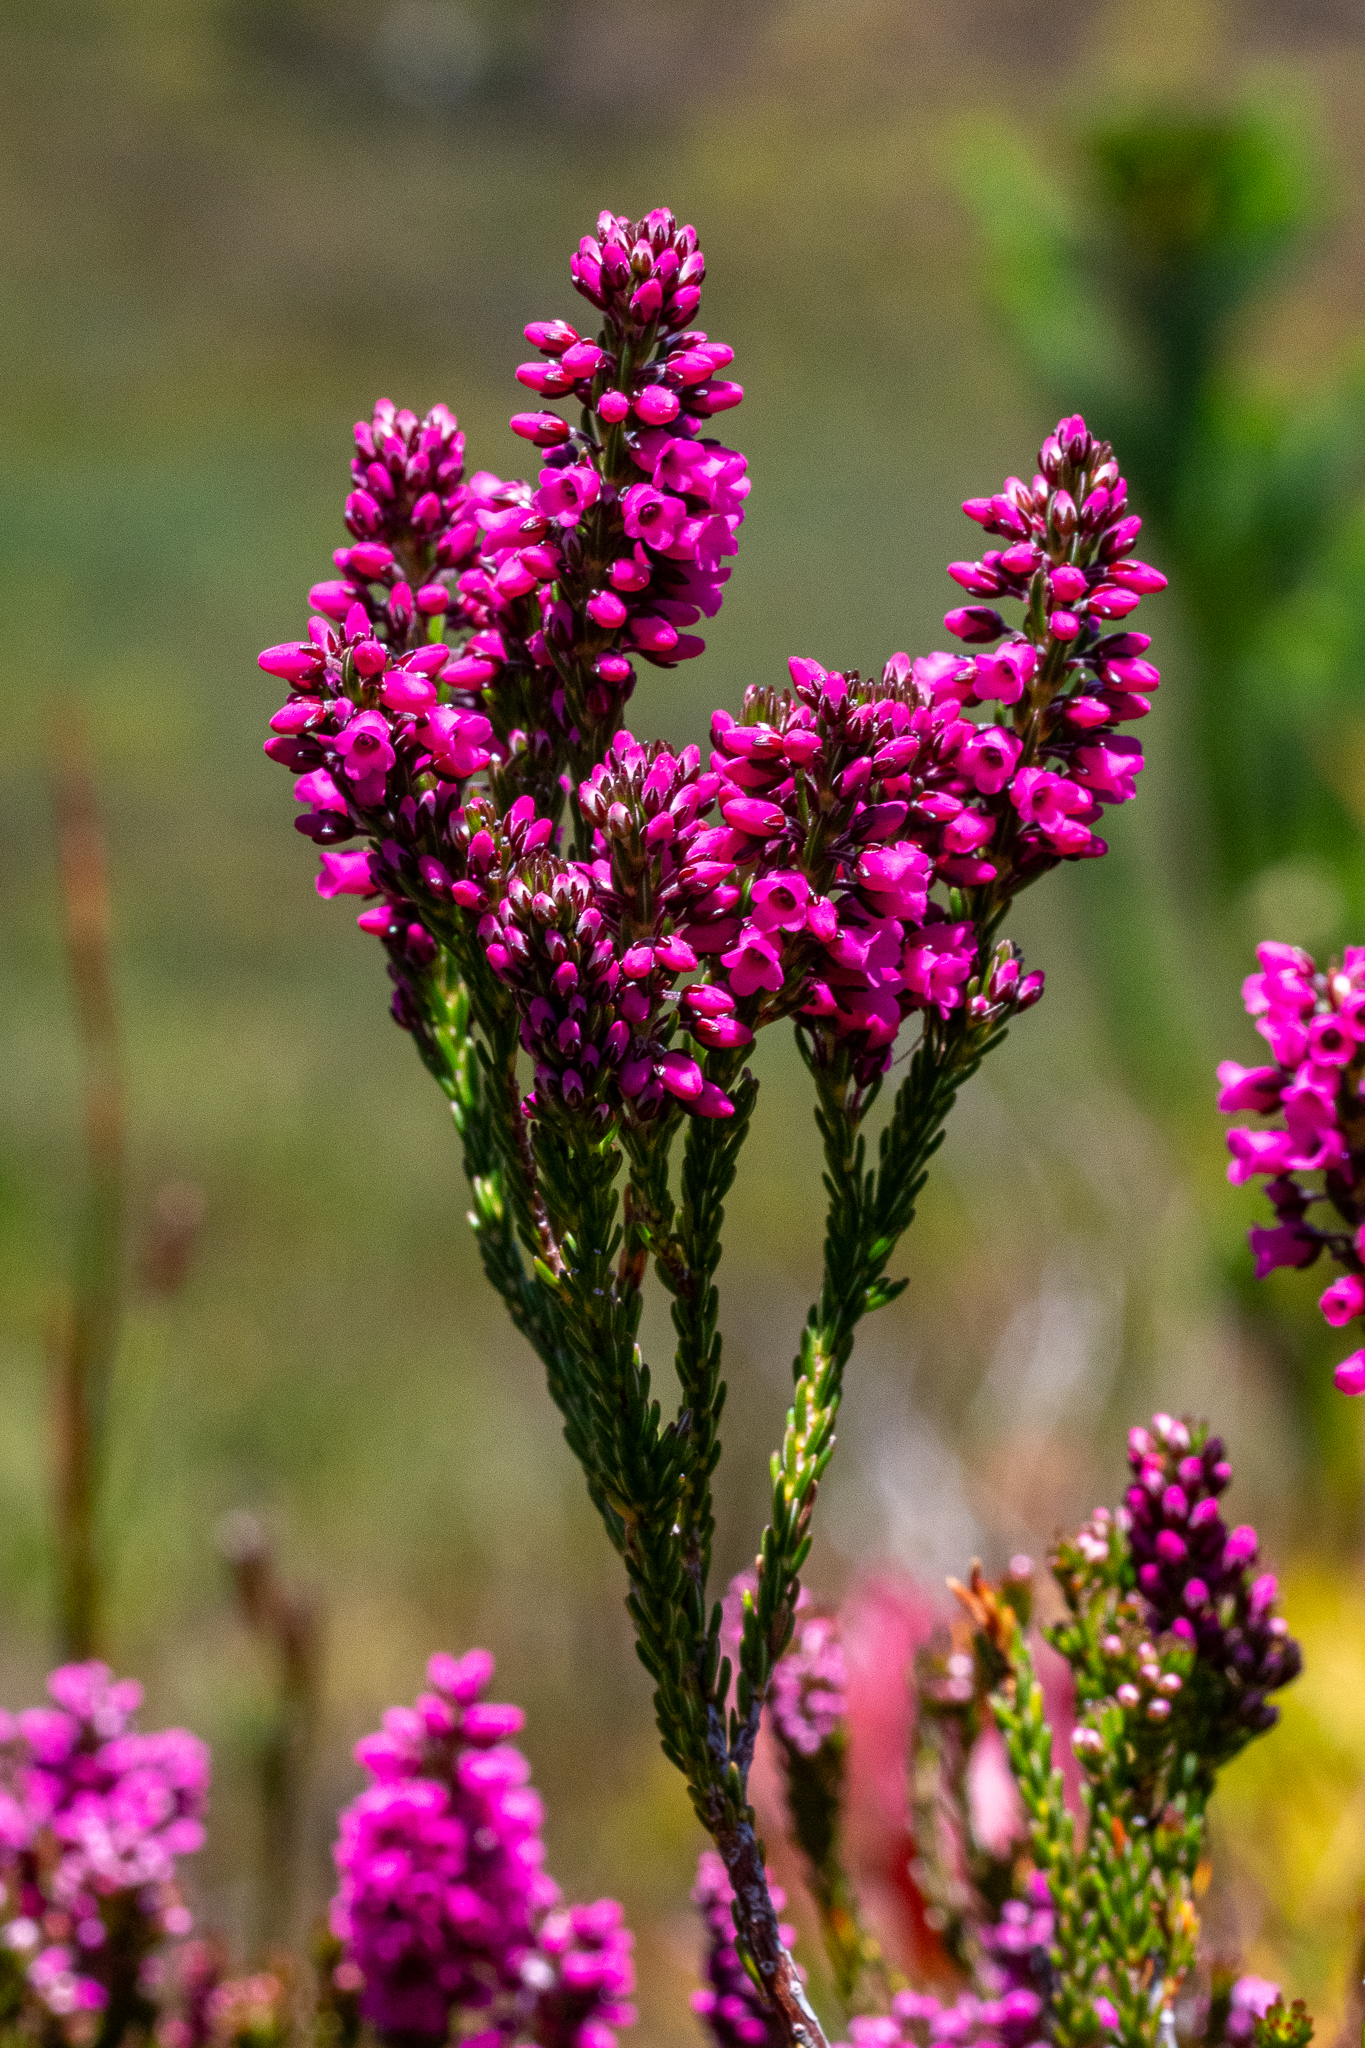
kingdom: Plantae
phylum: Tracheophyta
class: Magnoliopsida
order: Ericales
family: Ericaceae
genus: Erica
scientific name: Erica pulchella
